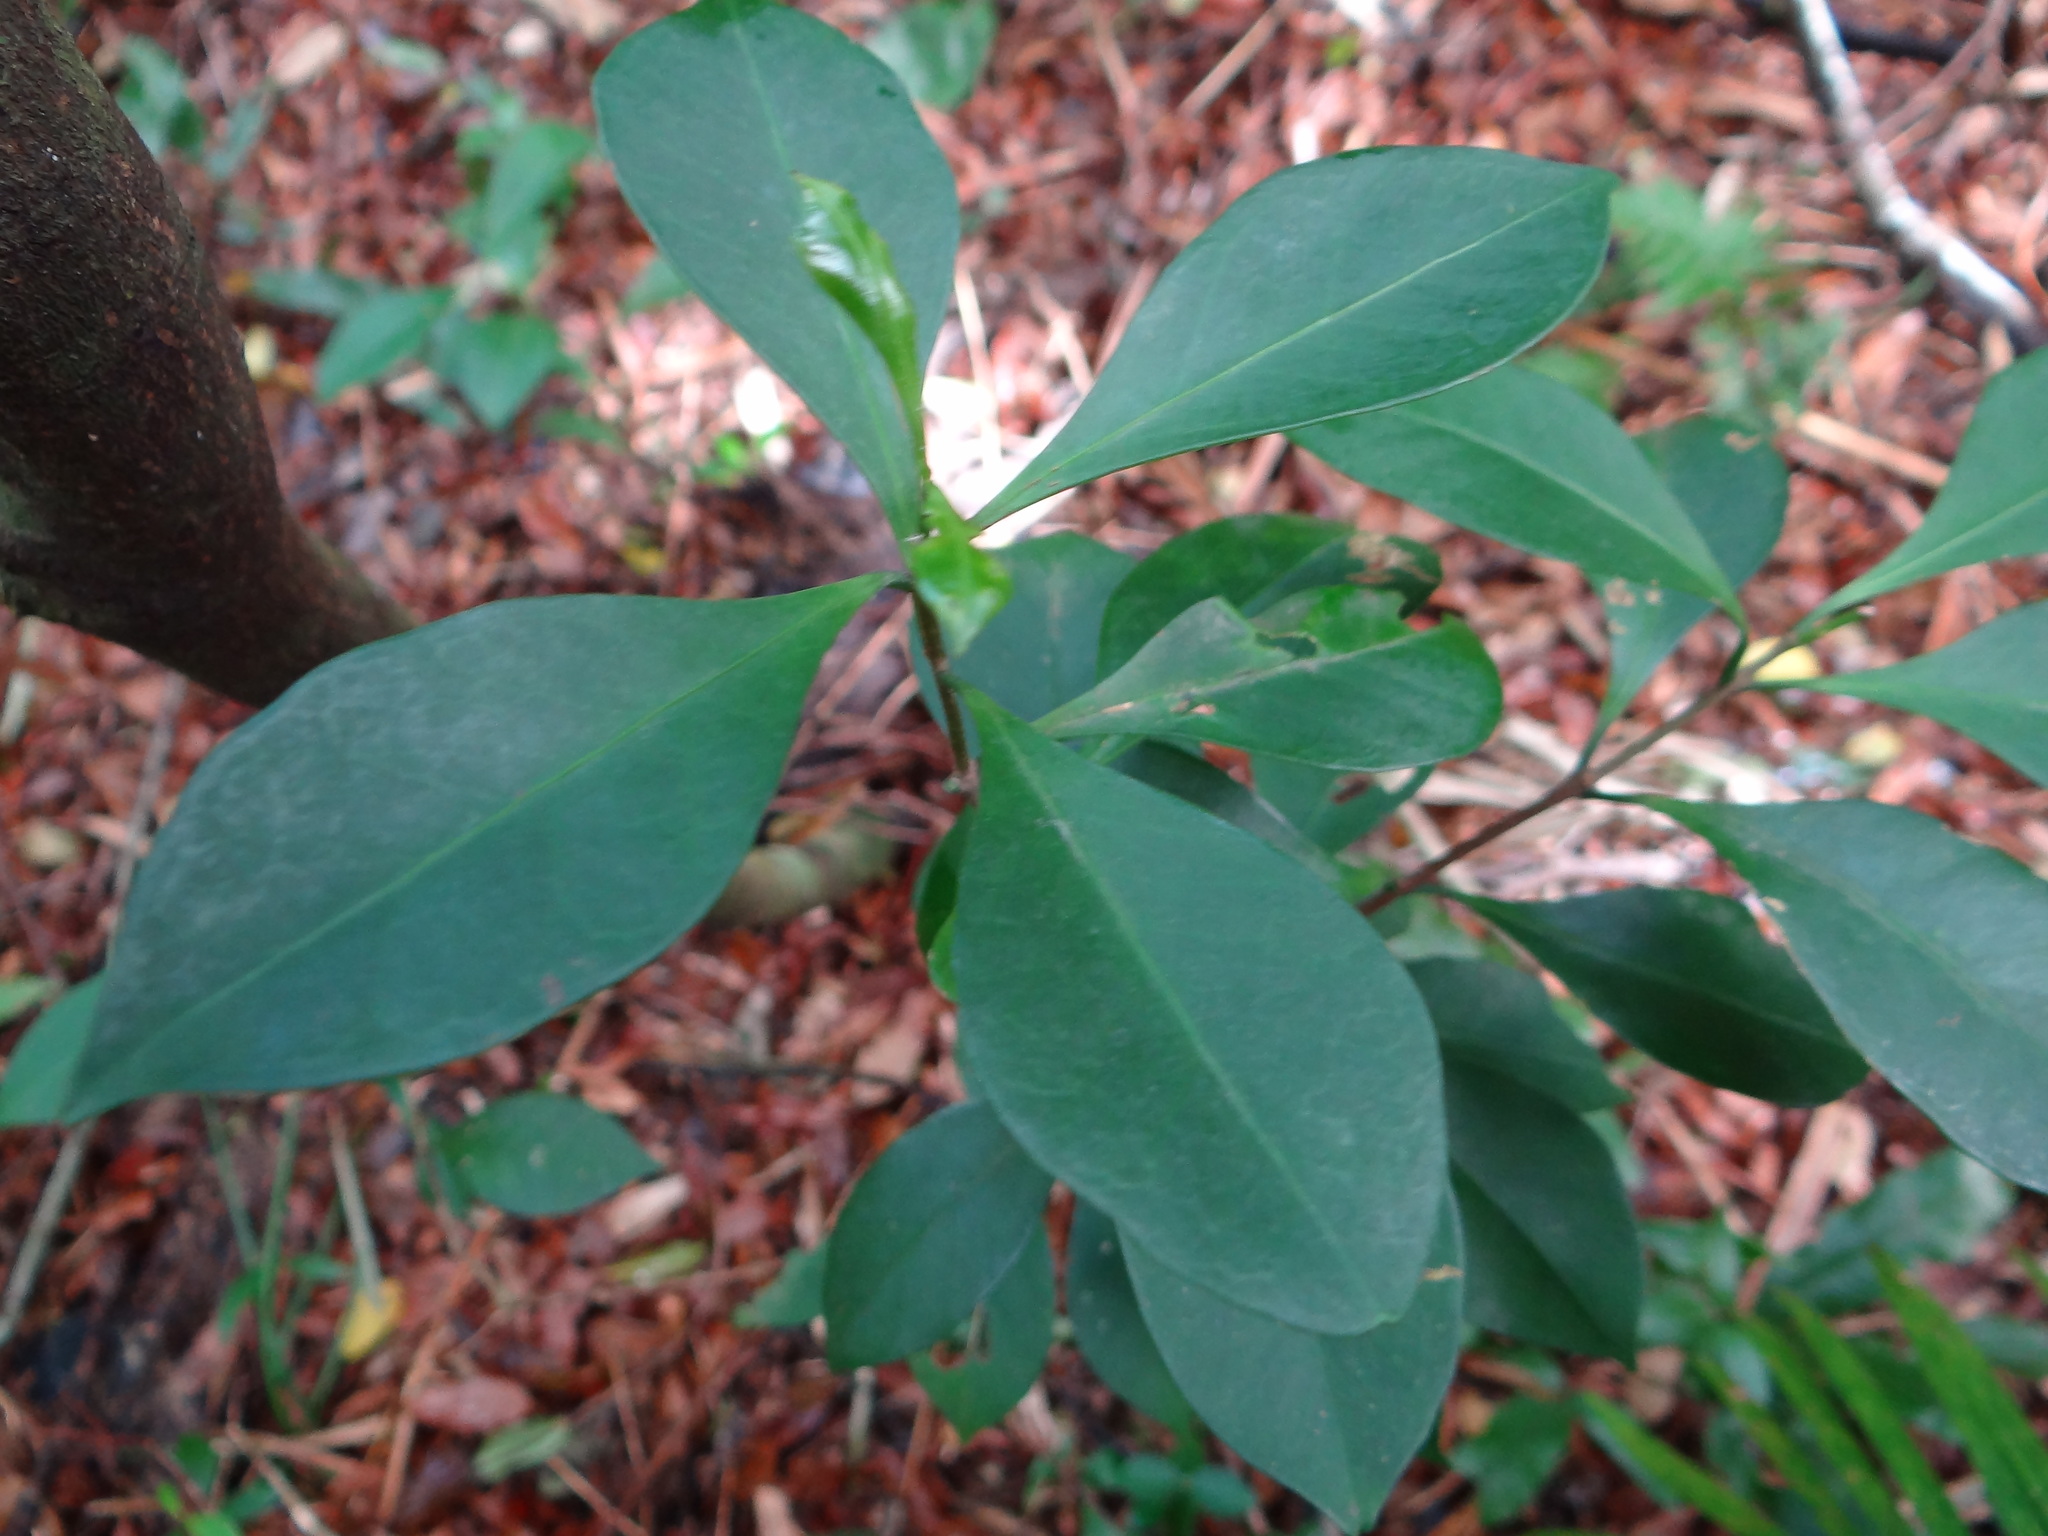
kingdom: Plantae
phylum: Tracheophyta
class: Magnoliopsida
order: Celastrales
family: Celastraceae
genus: Euonymus
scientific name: Euonymus tashiroi
